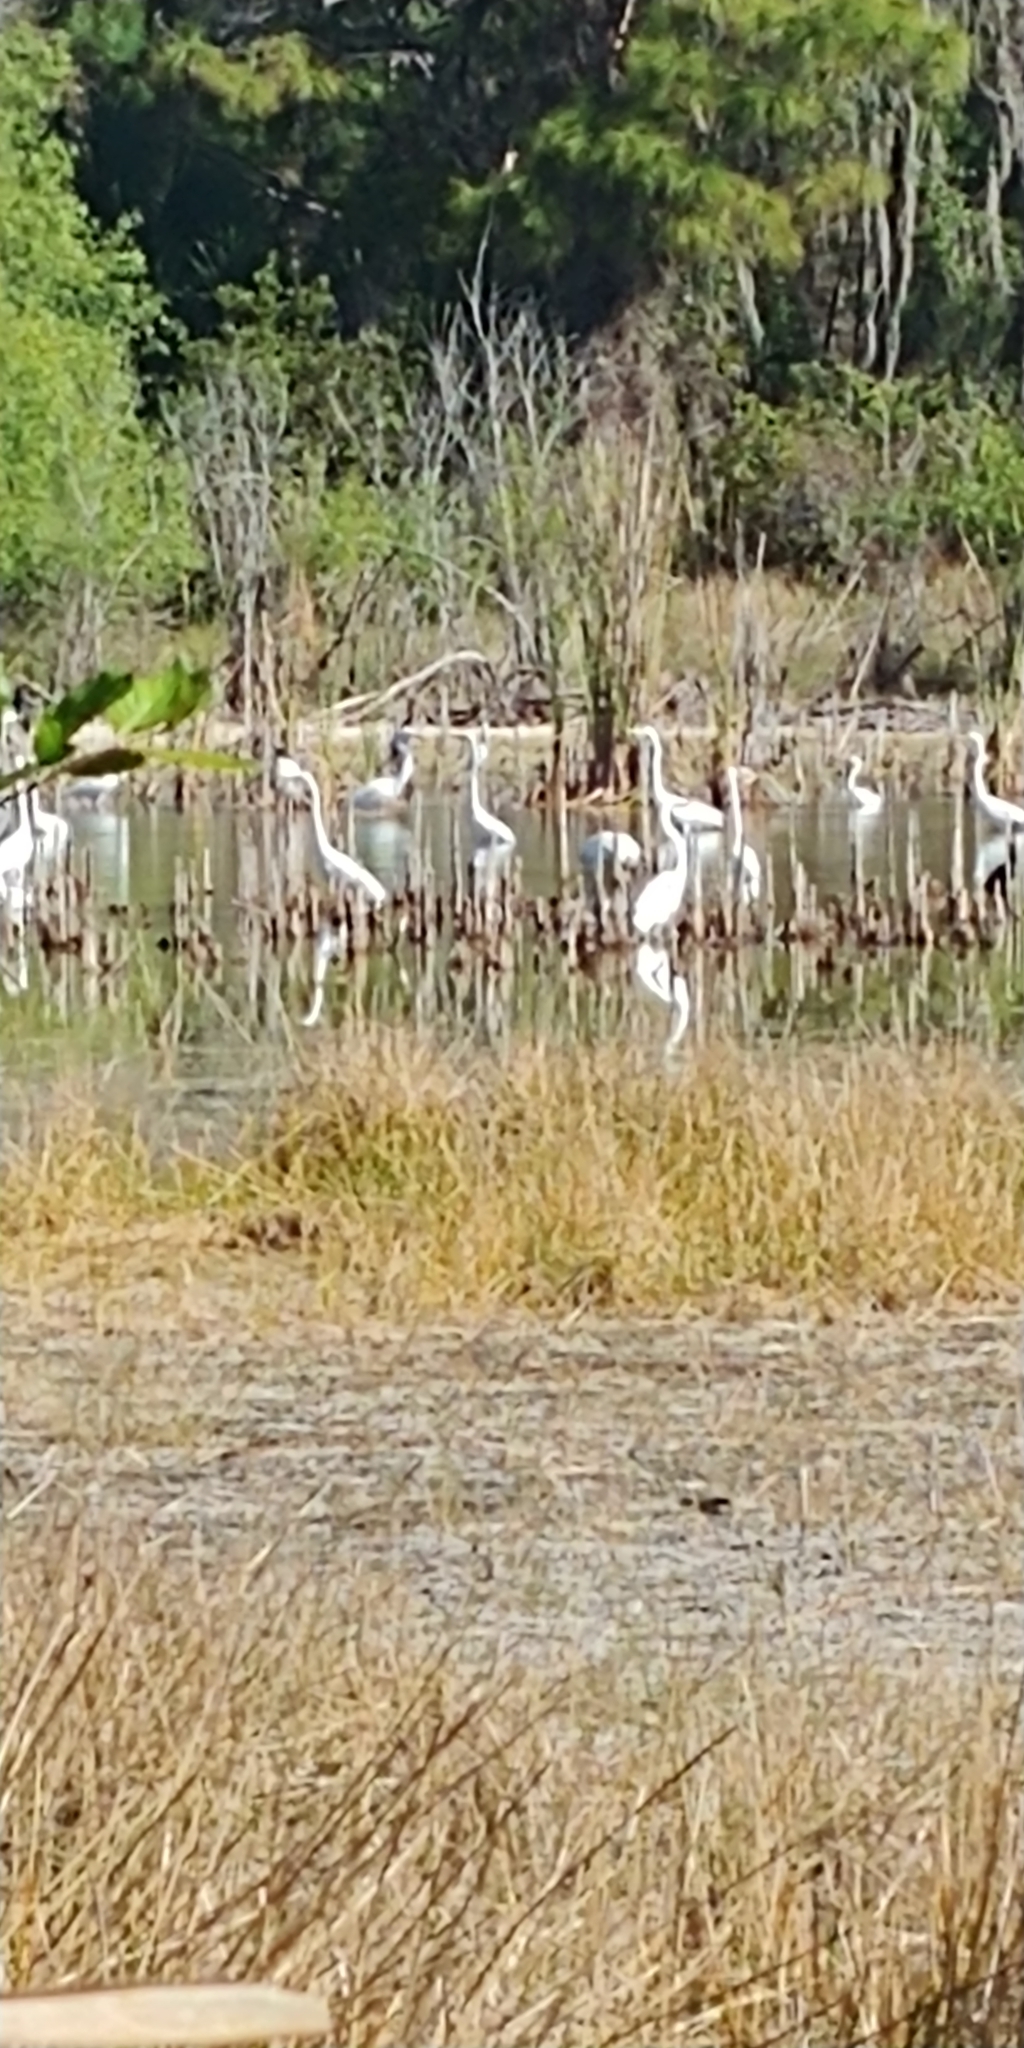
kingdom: Animalia
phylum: Chordata
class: Aves
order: Pelecaniformes
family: Ardeidae
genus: Ardea
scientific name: Ardea alba
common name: Great egret
